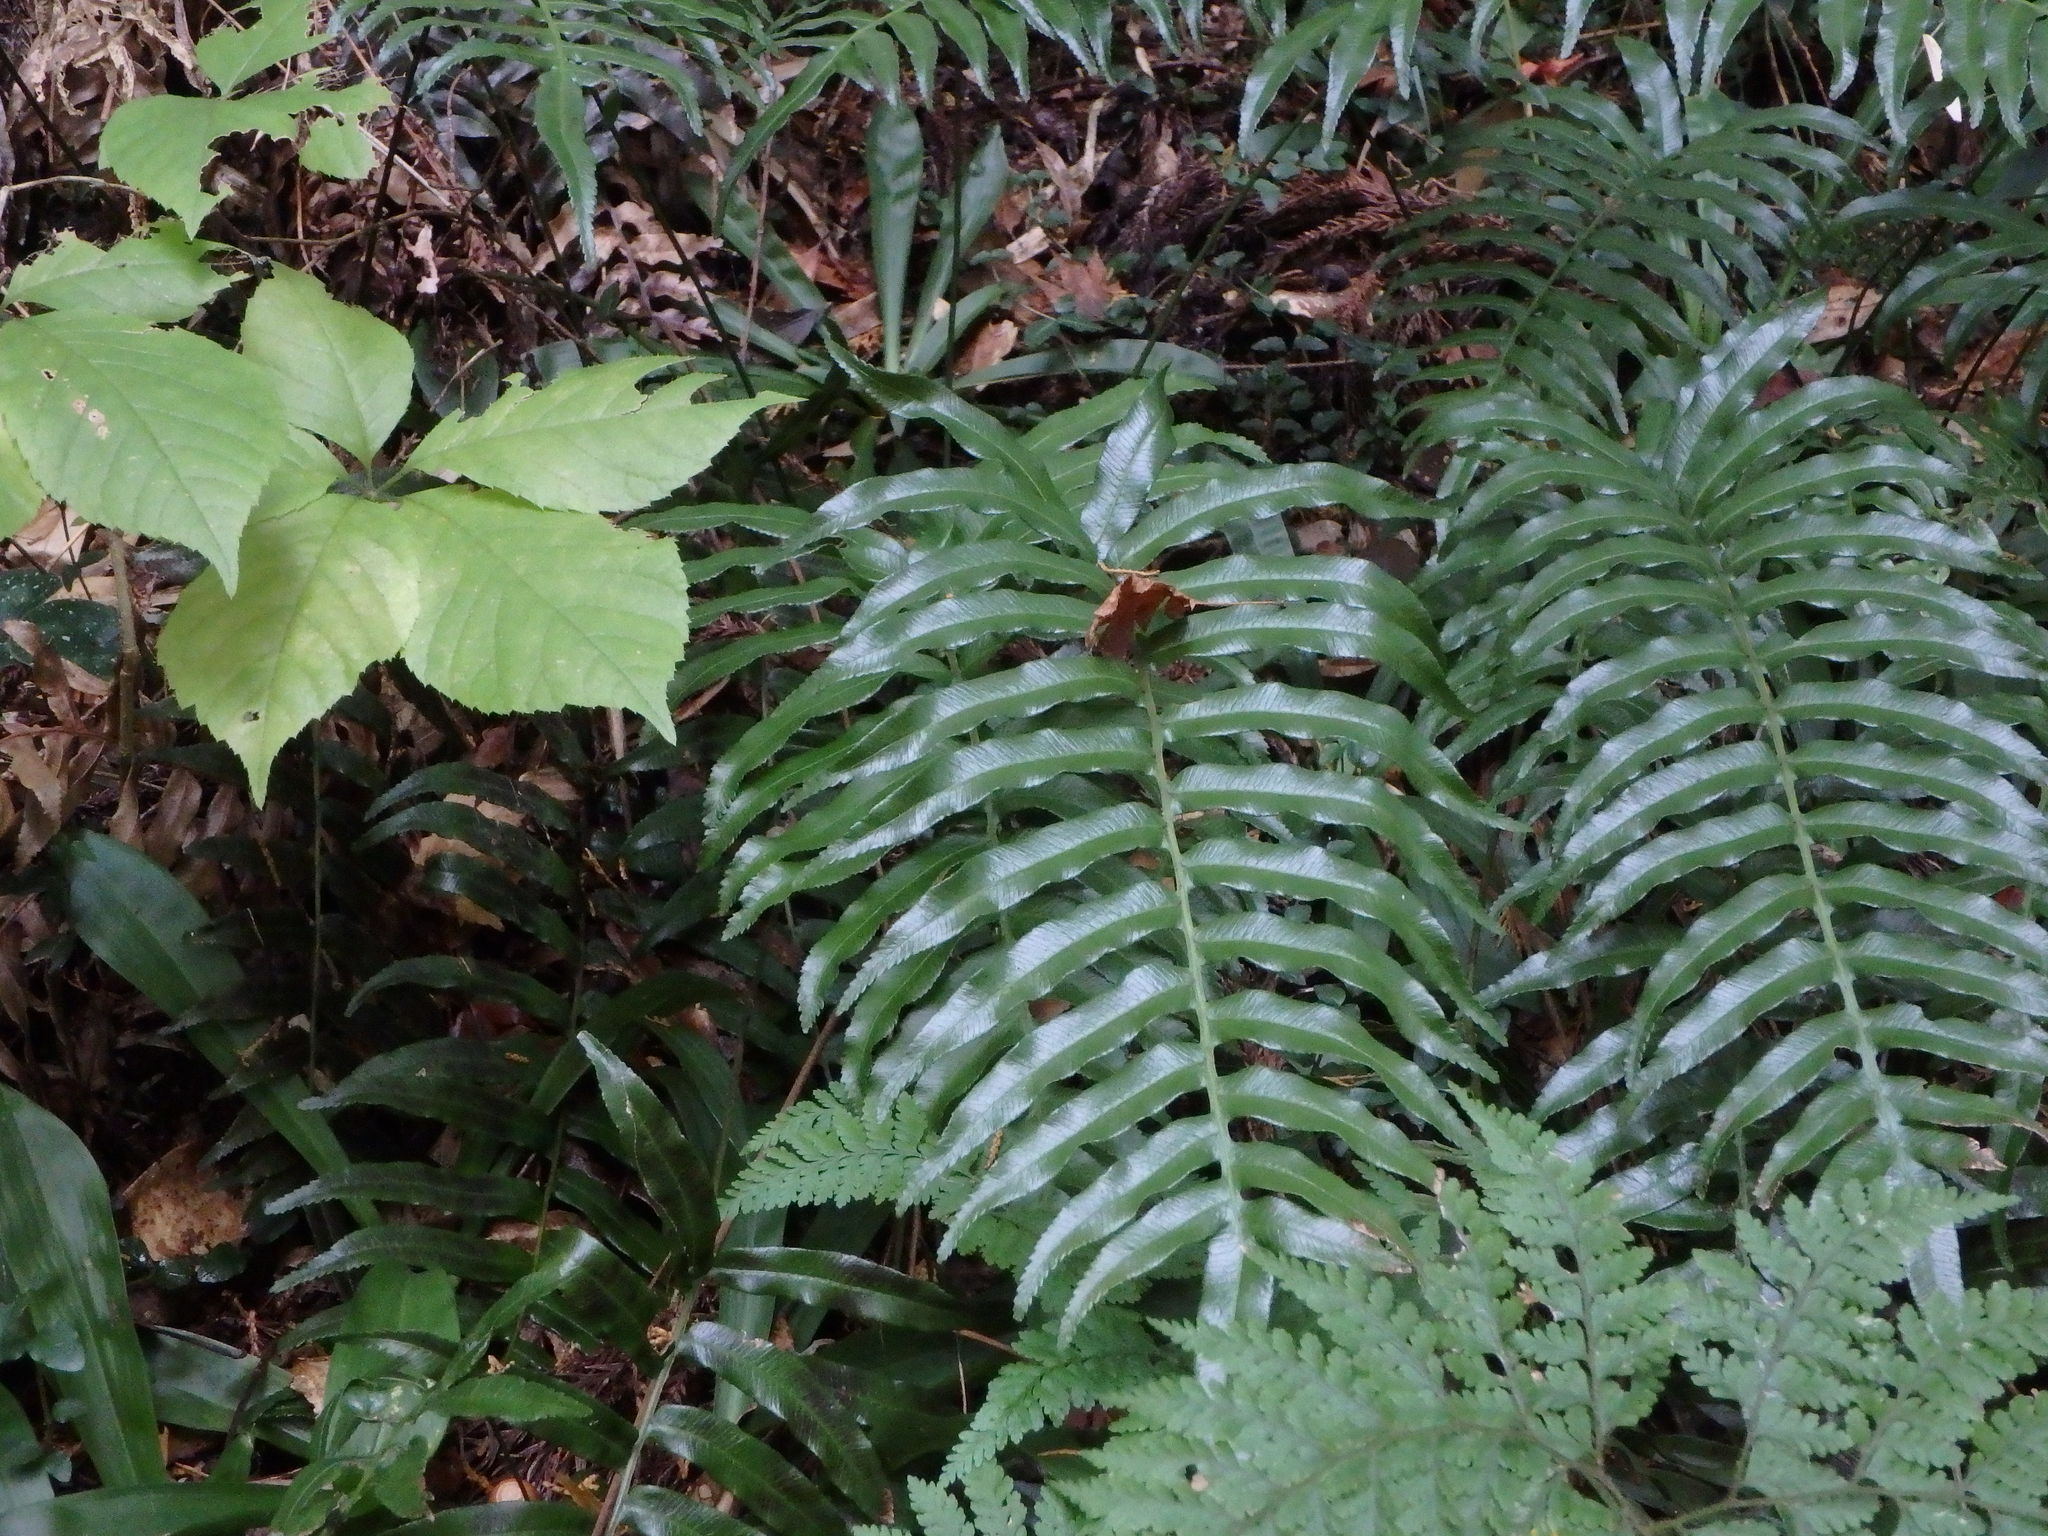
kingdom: Plantae
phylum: Tracheophyta
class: Polypodiopsida
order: Cyatheales
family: Plagiogyriaceae
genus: Plagiogyria
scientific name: Plagiogyria japonica
